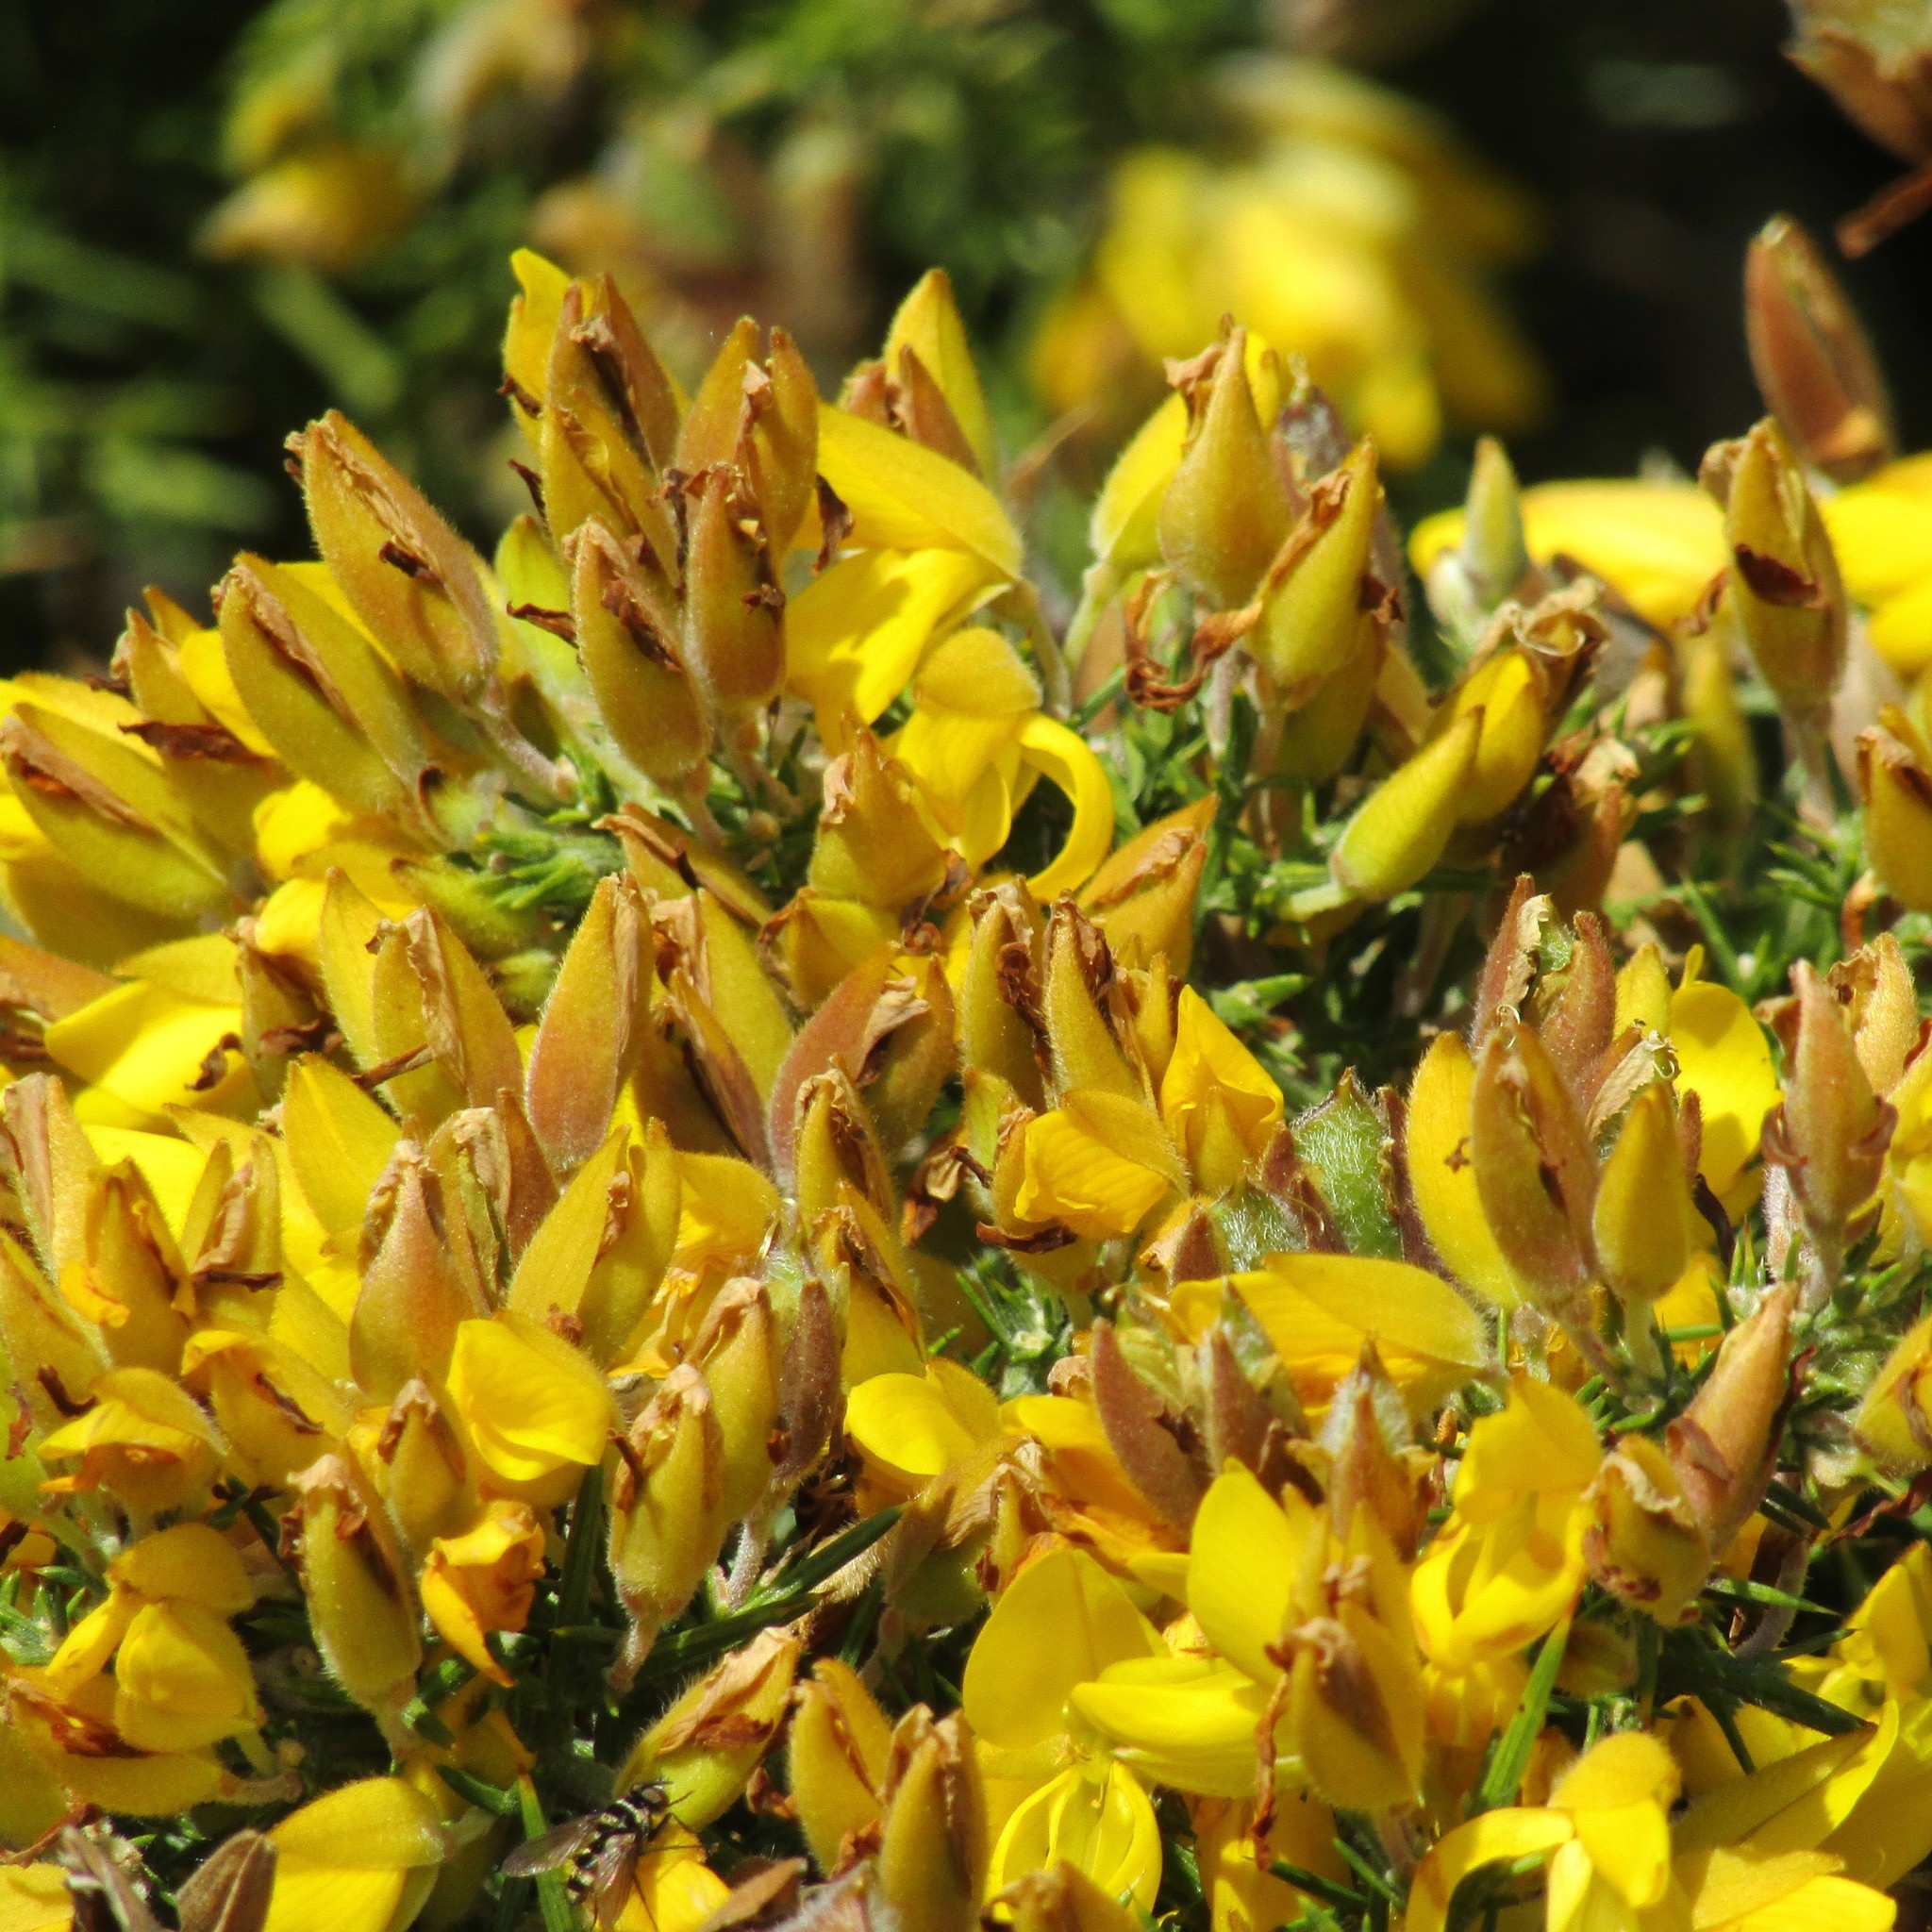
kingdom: Plantae
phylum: Tracheophyta
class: Magnoliopsida
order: Fabales
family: Fabaceae
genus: Ulex
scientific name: Ulex europaeus
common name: Common gorse
